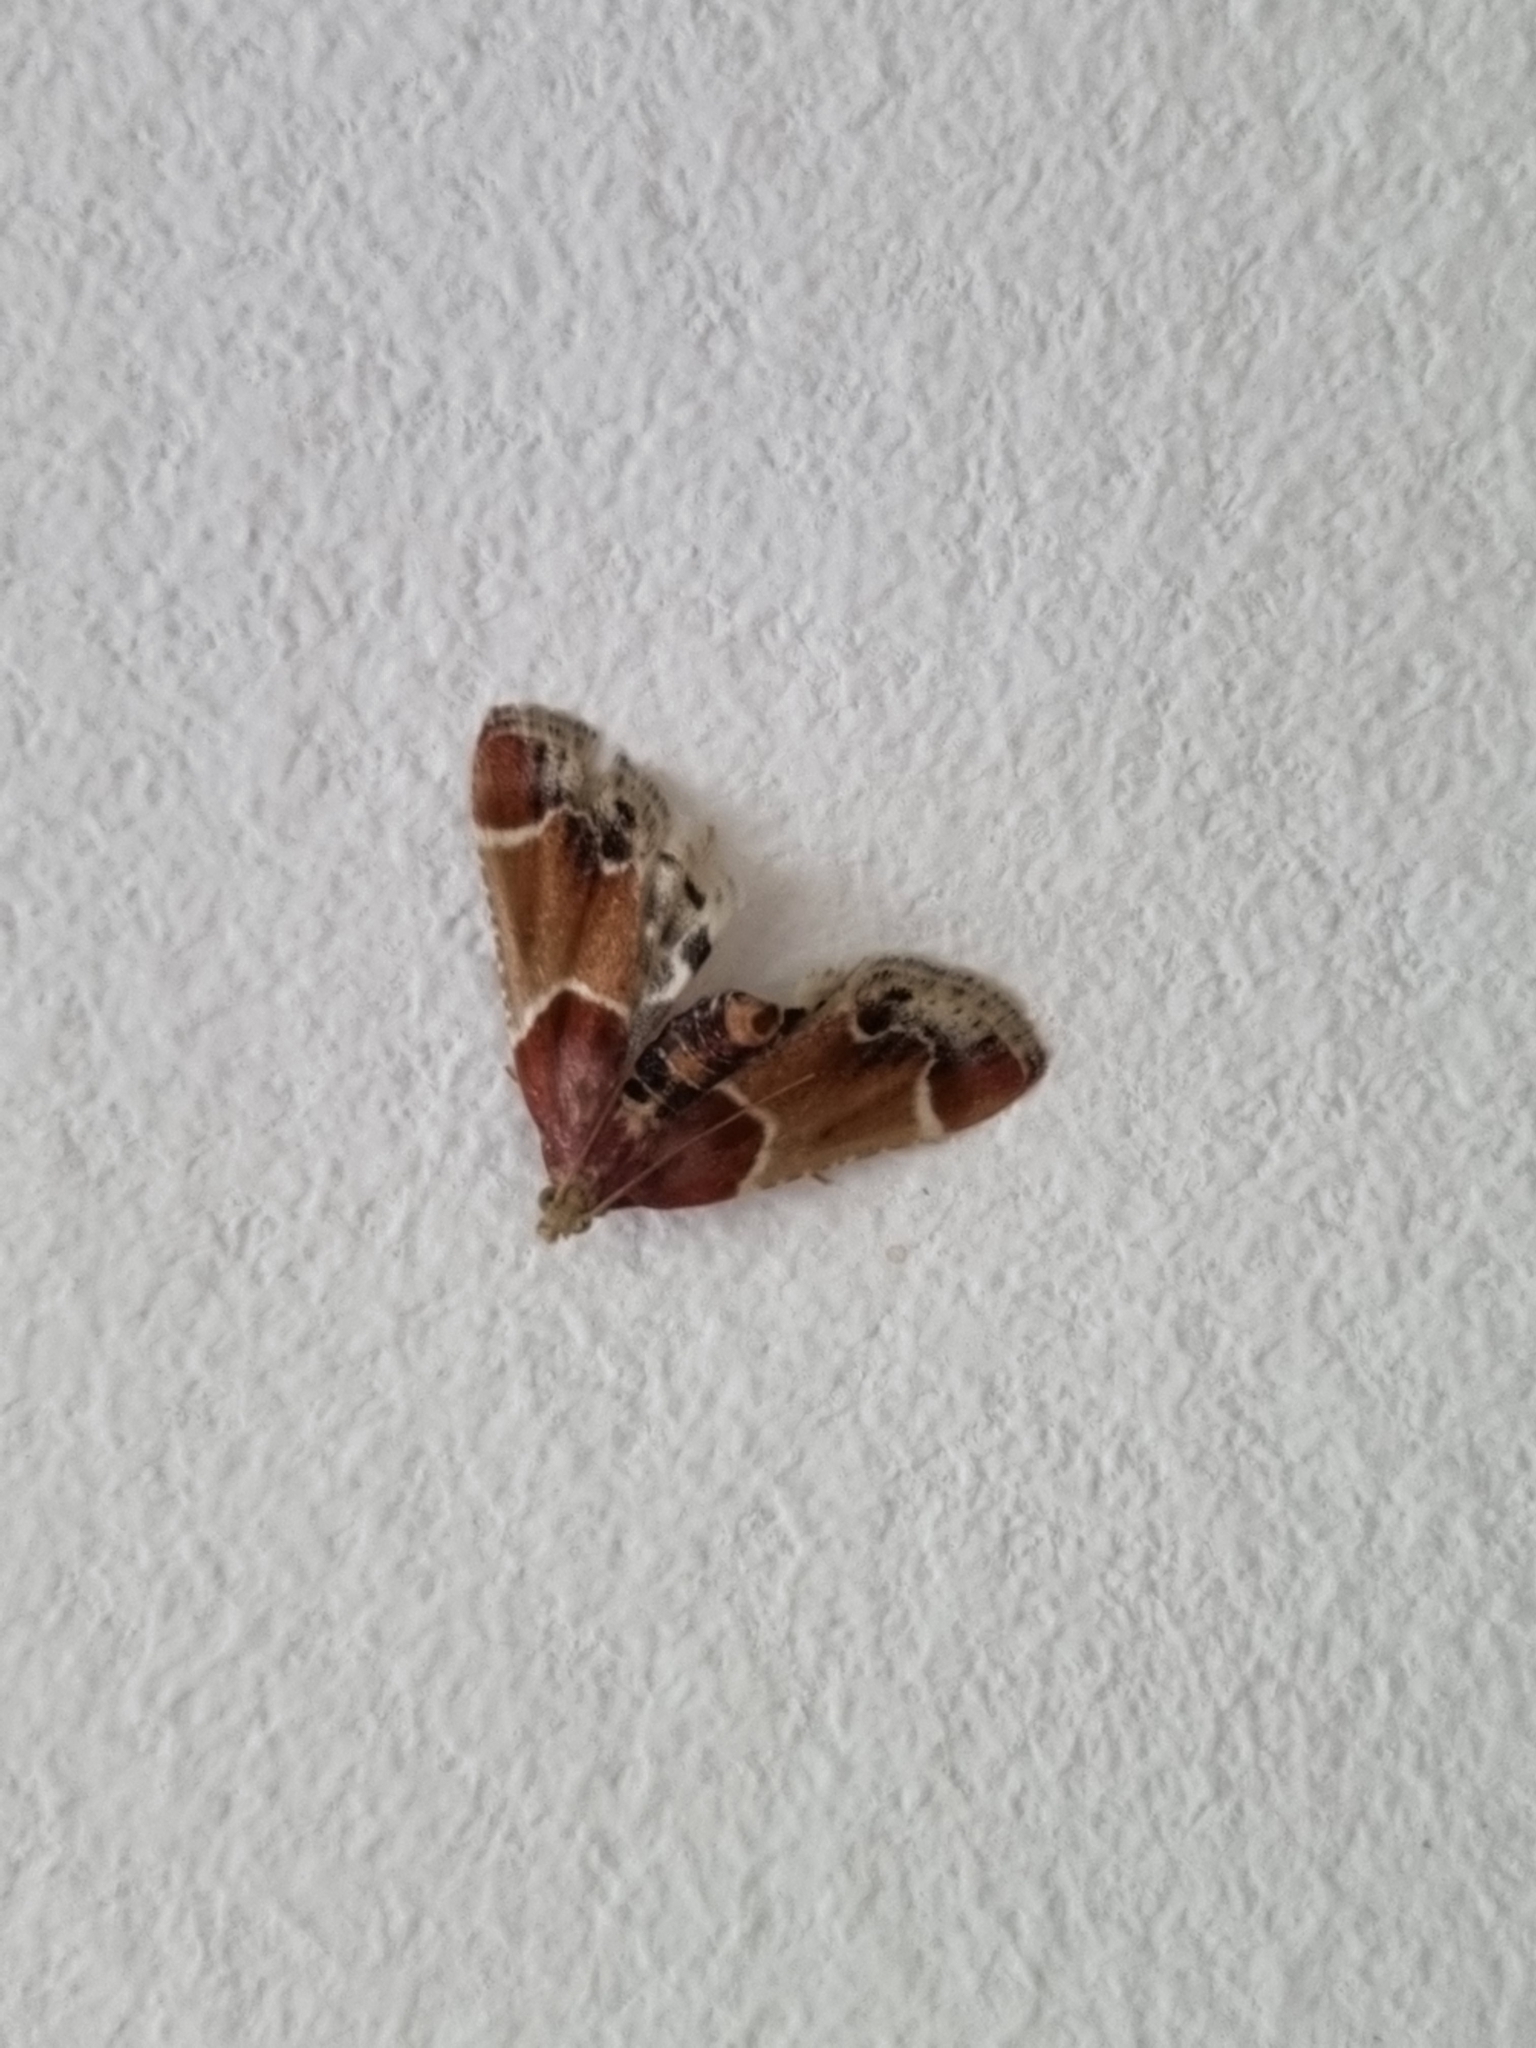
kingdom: Animalia
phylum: Arthropoda
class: Insecta
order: Lepidoptera
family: Pyralidae
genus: Pyralis
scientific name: Pyralis farinalis
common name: Meal moth
